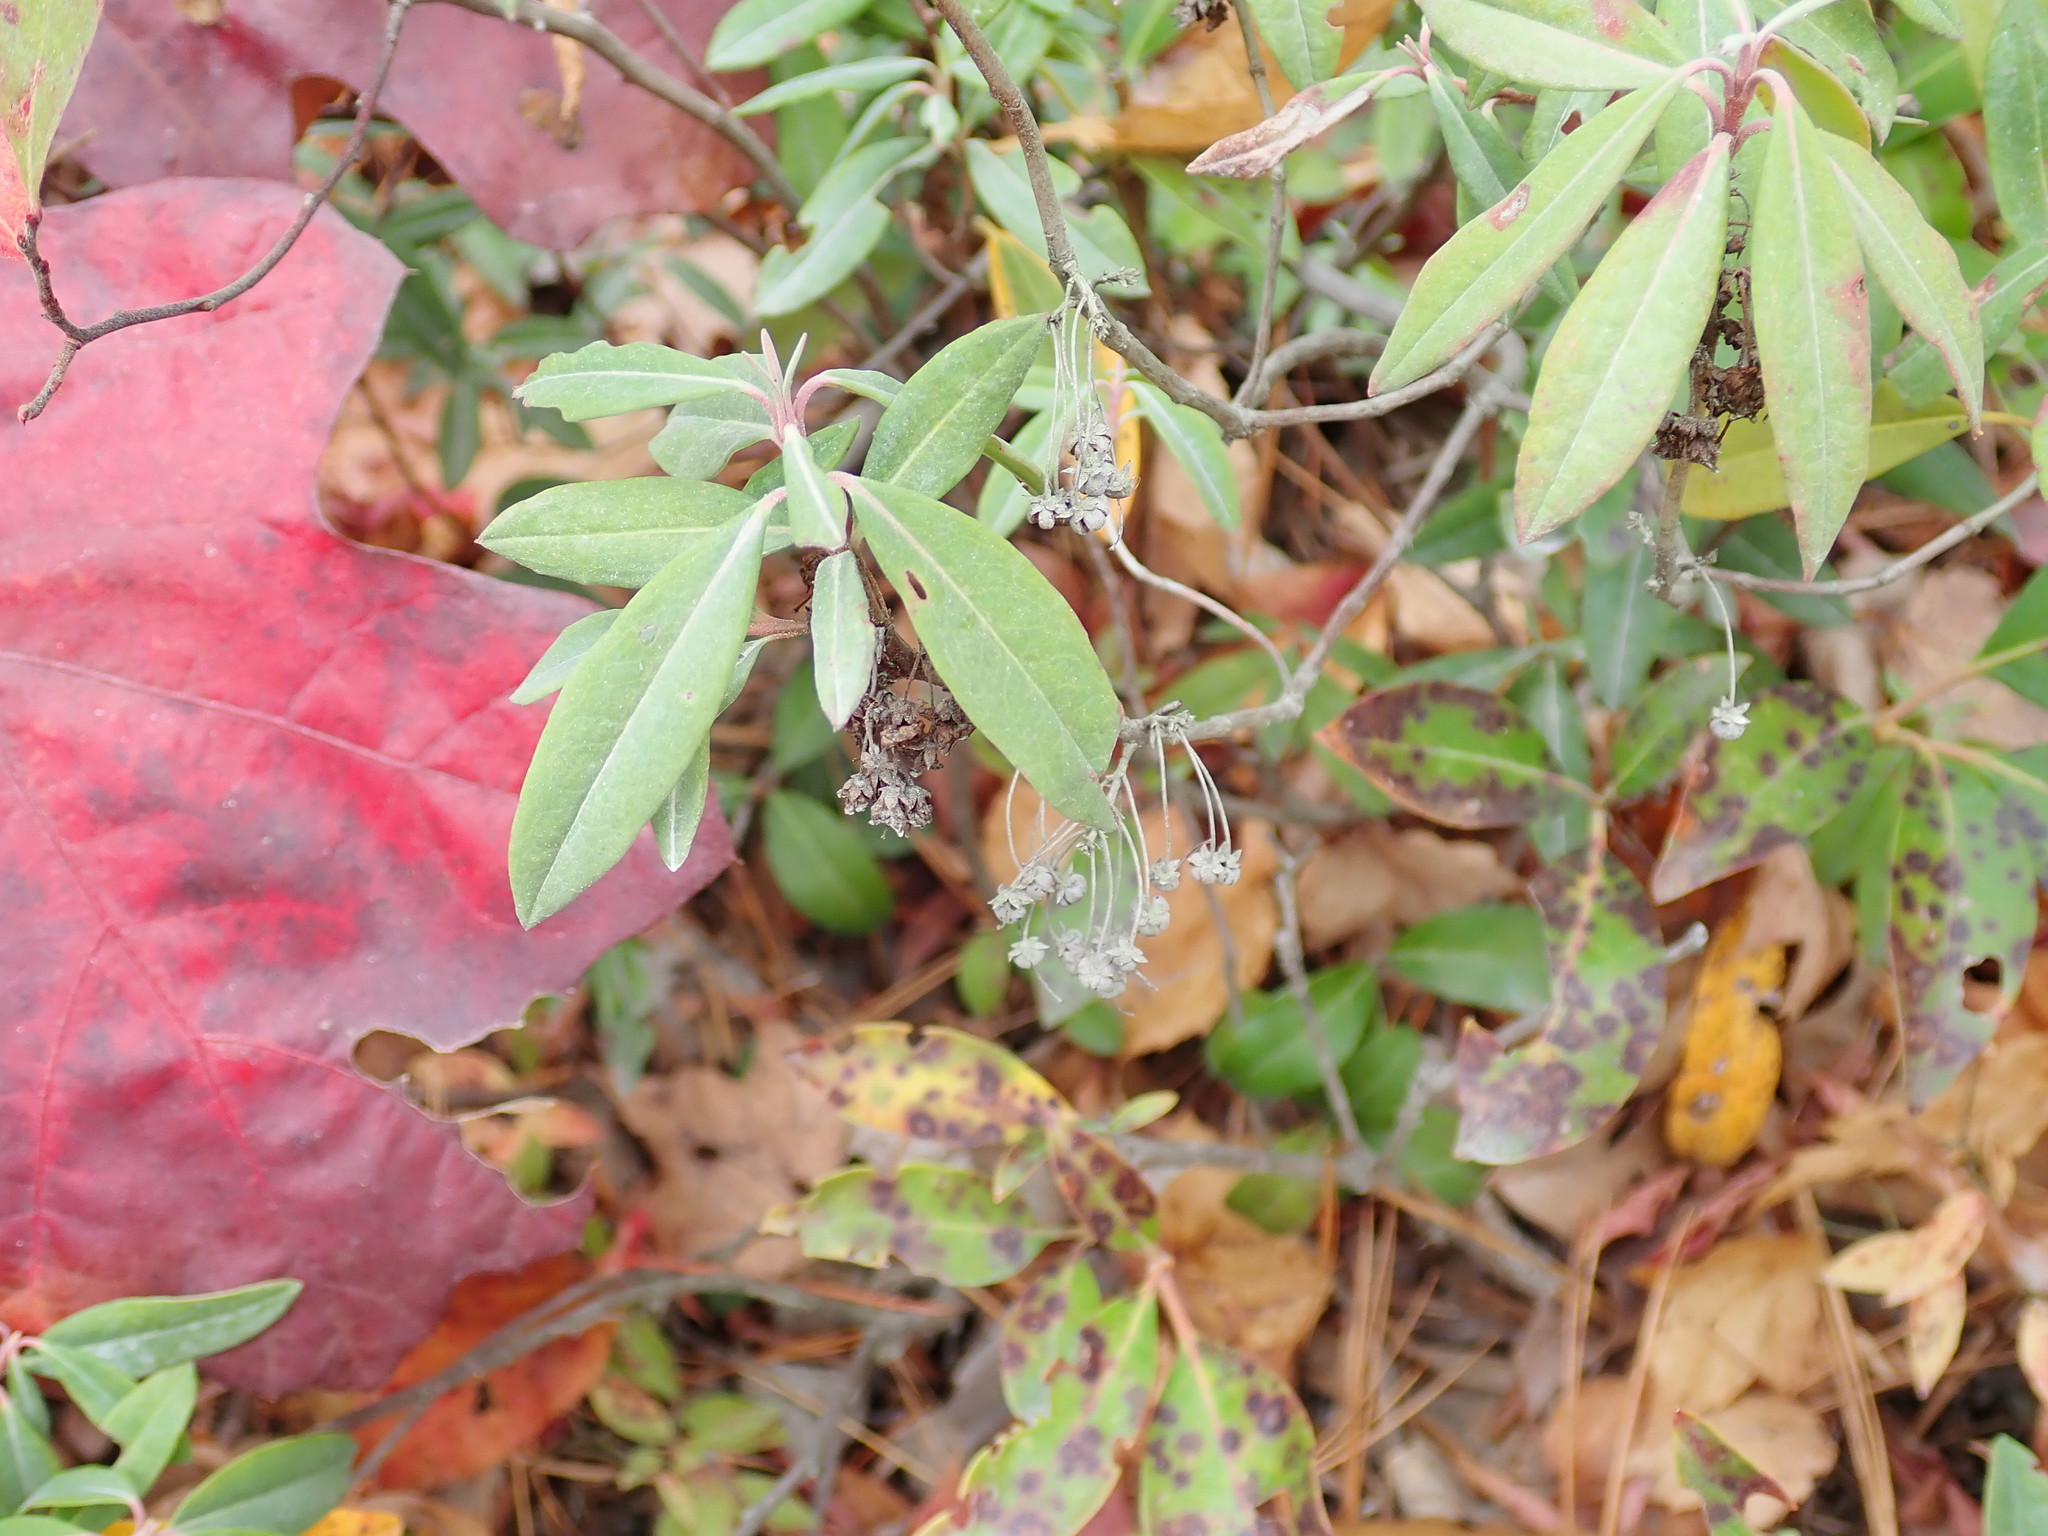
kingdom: Plantae
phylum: Tracheophyta
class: Magnoliopsida
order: Ericales
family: Ericaceae
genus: Kalmia
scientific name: Kalmia angustifolia
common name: Sheep-laurel
